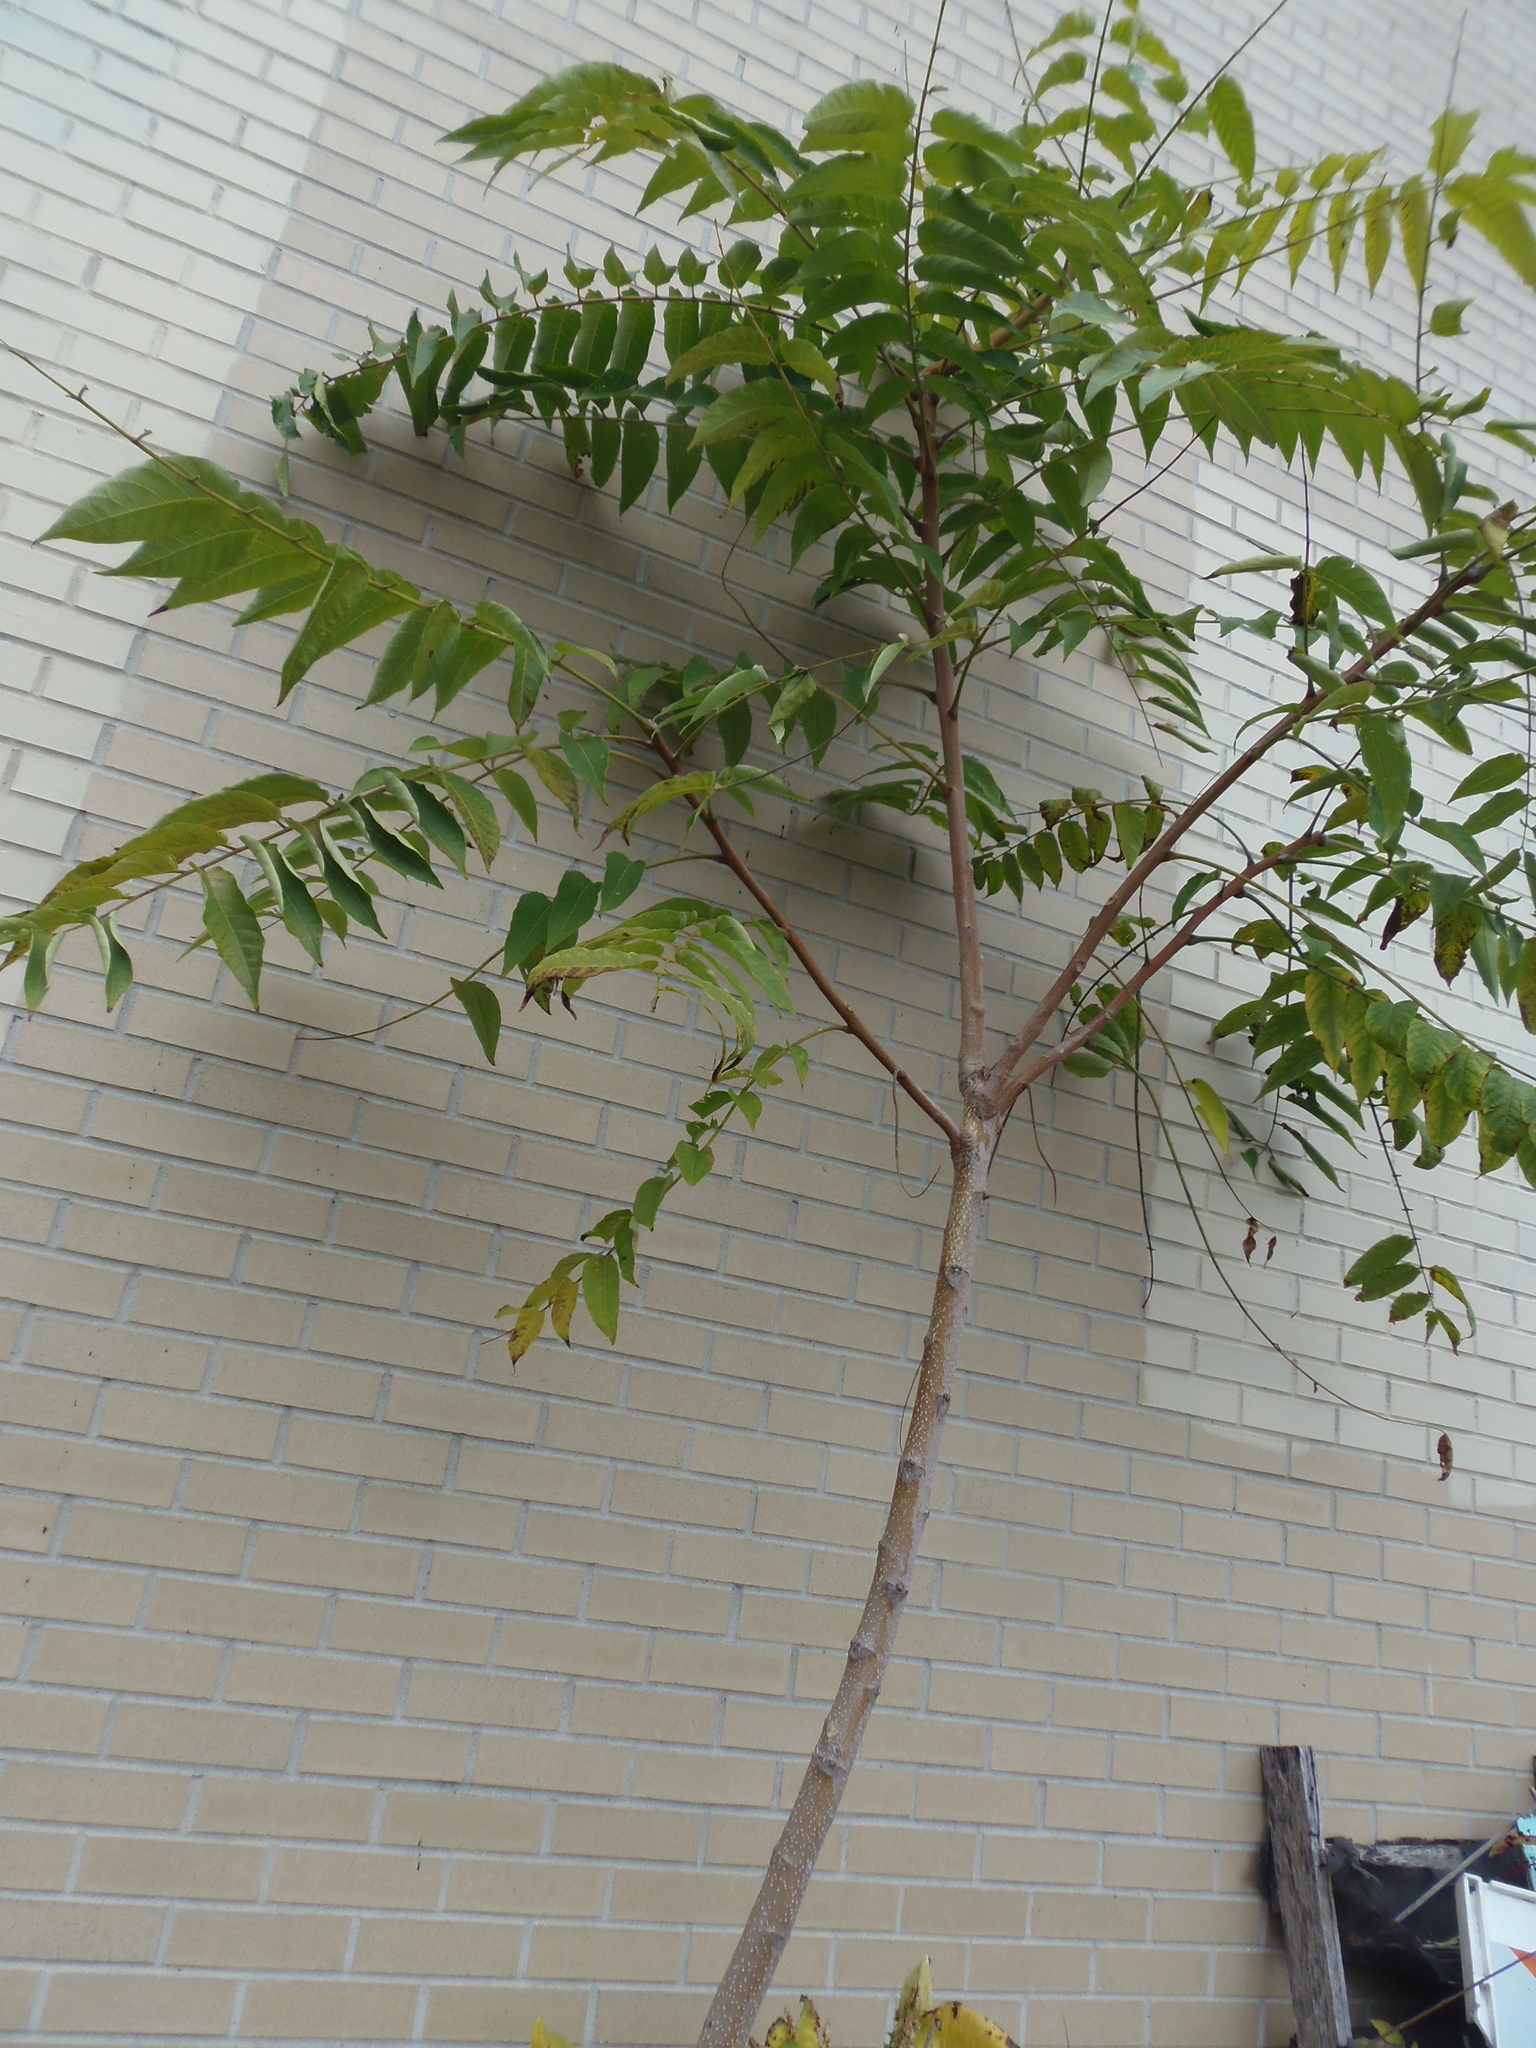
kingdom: Plantae
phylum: Tracheophyta
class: Magnoliopsida
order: Sapindales
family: Simaroubaceae
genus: Ailanthus
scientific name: Ailanthus altissima
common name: Tree-of-heaven
